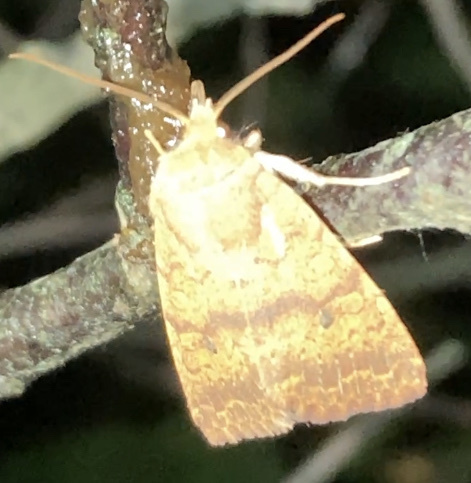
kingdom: Animalia
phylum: Arthropoda
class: Insecta
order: Lepidoptera
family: Noctuidae
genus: Agrochola
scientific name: Agrochola bicolorago
